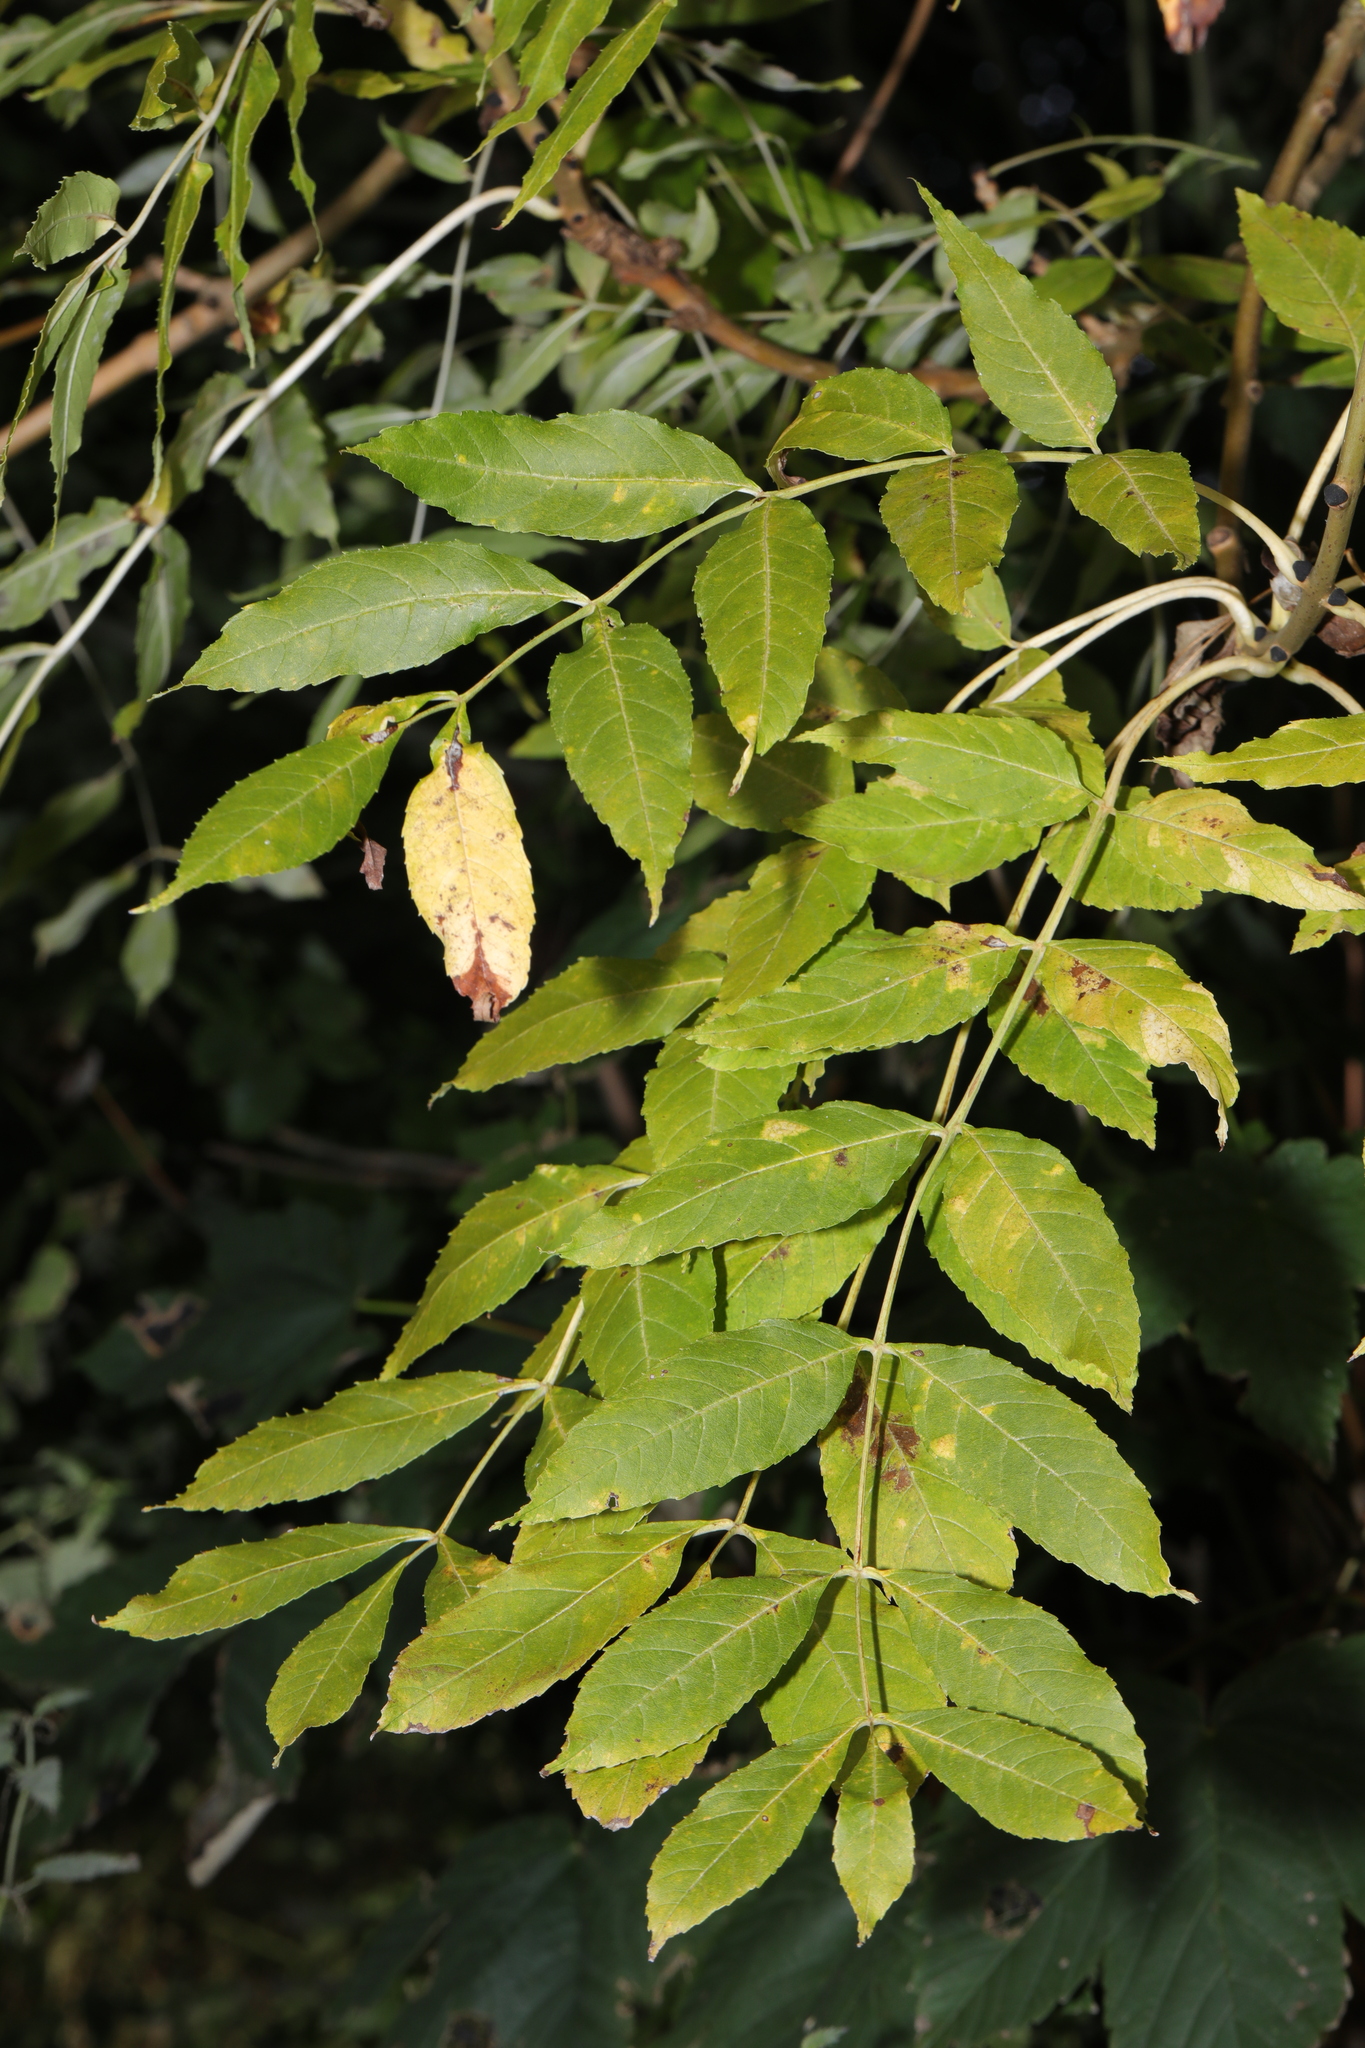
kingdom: Plantae
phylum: Tracheophyta
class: Magnoliopsida
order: Lamiales
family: Oleaceae
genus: Fraxinus
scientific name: Fraxinus excelsior
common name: European ash
